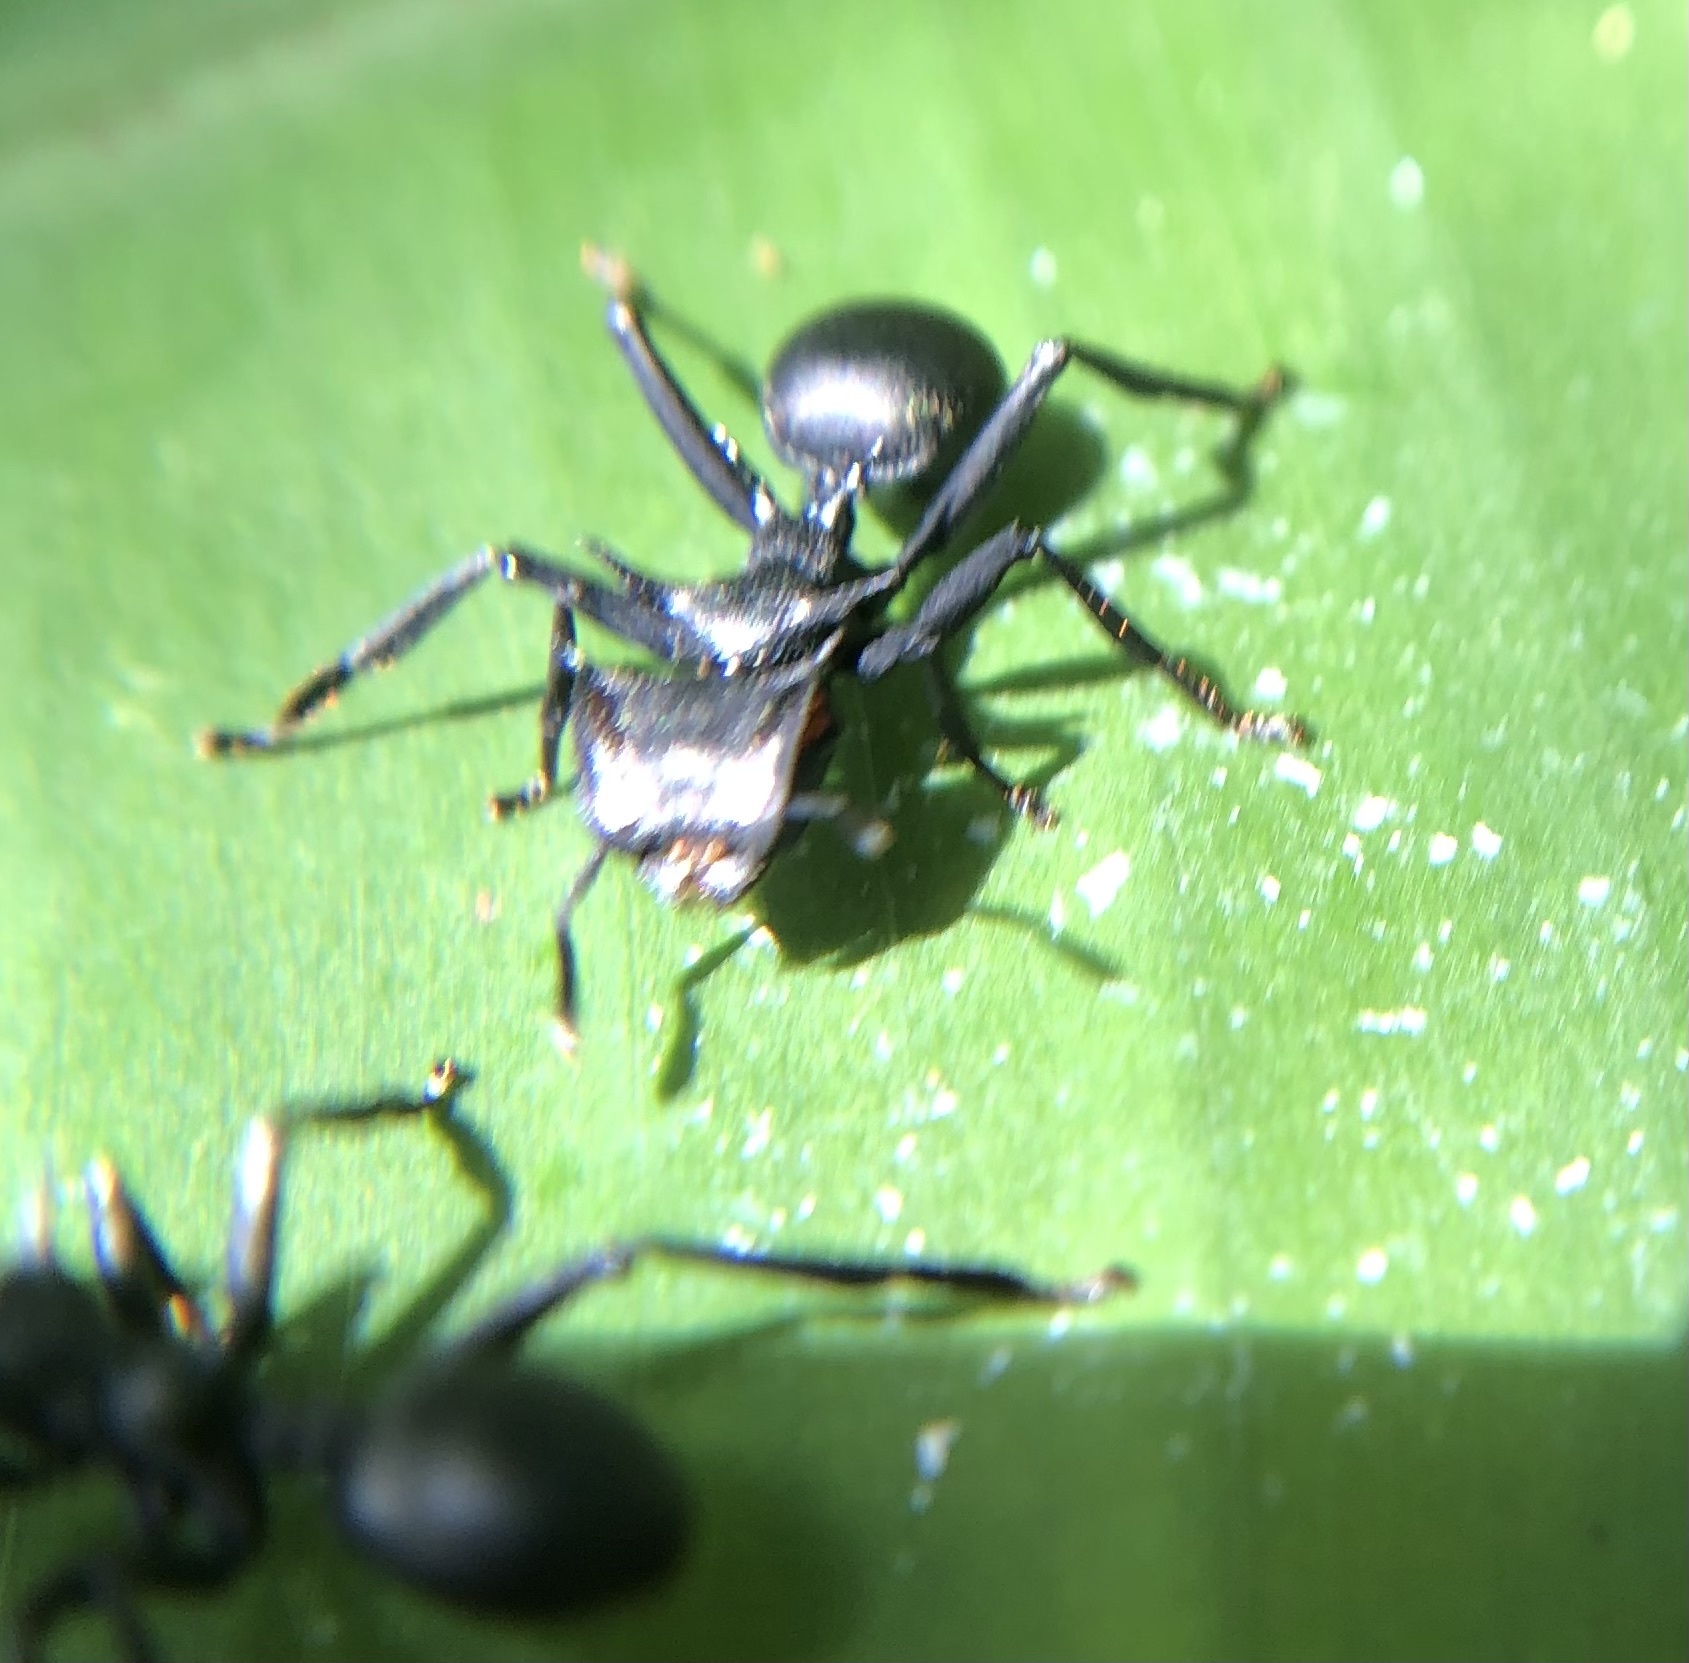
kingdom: Animalia
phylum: Arthropoda
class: Insecta
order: Hymenoptera
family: Formicidae
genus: Cephalotes
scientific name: Cephalotes atratus
